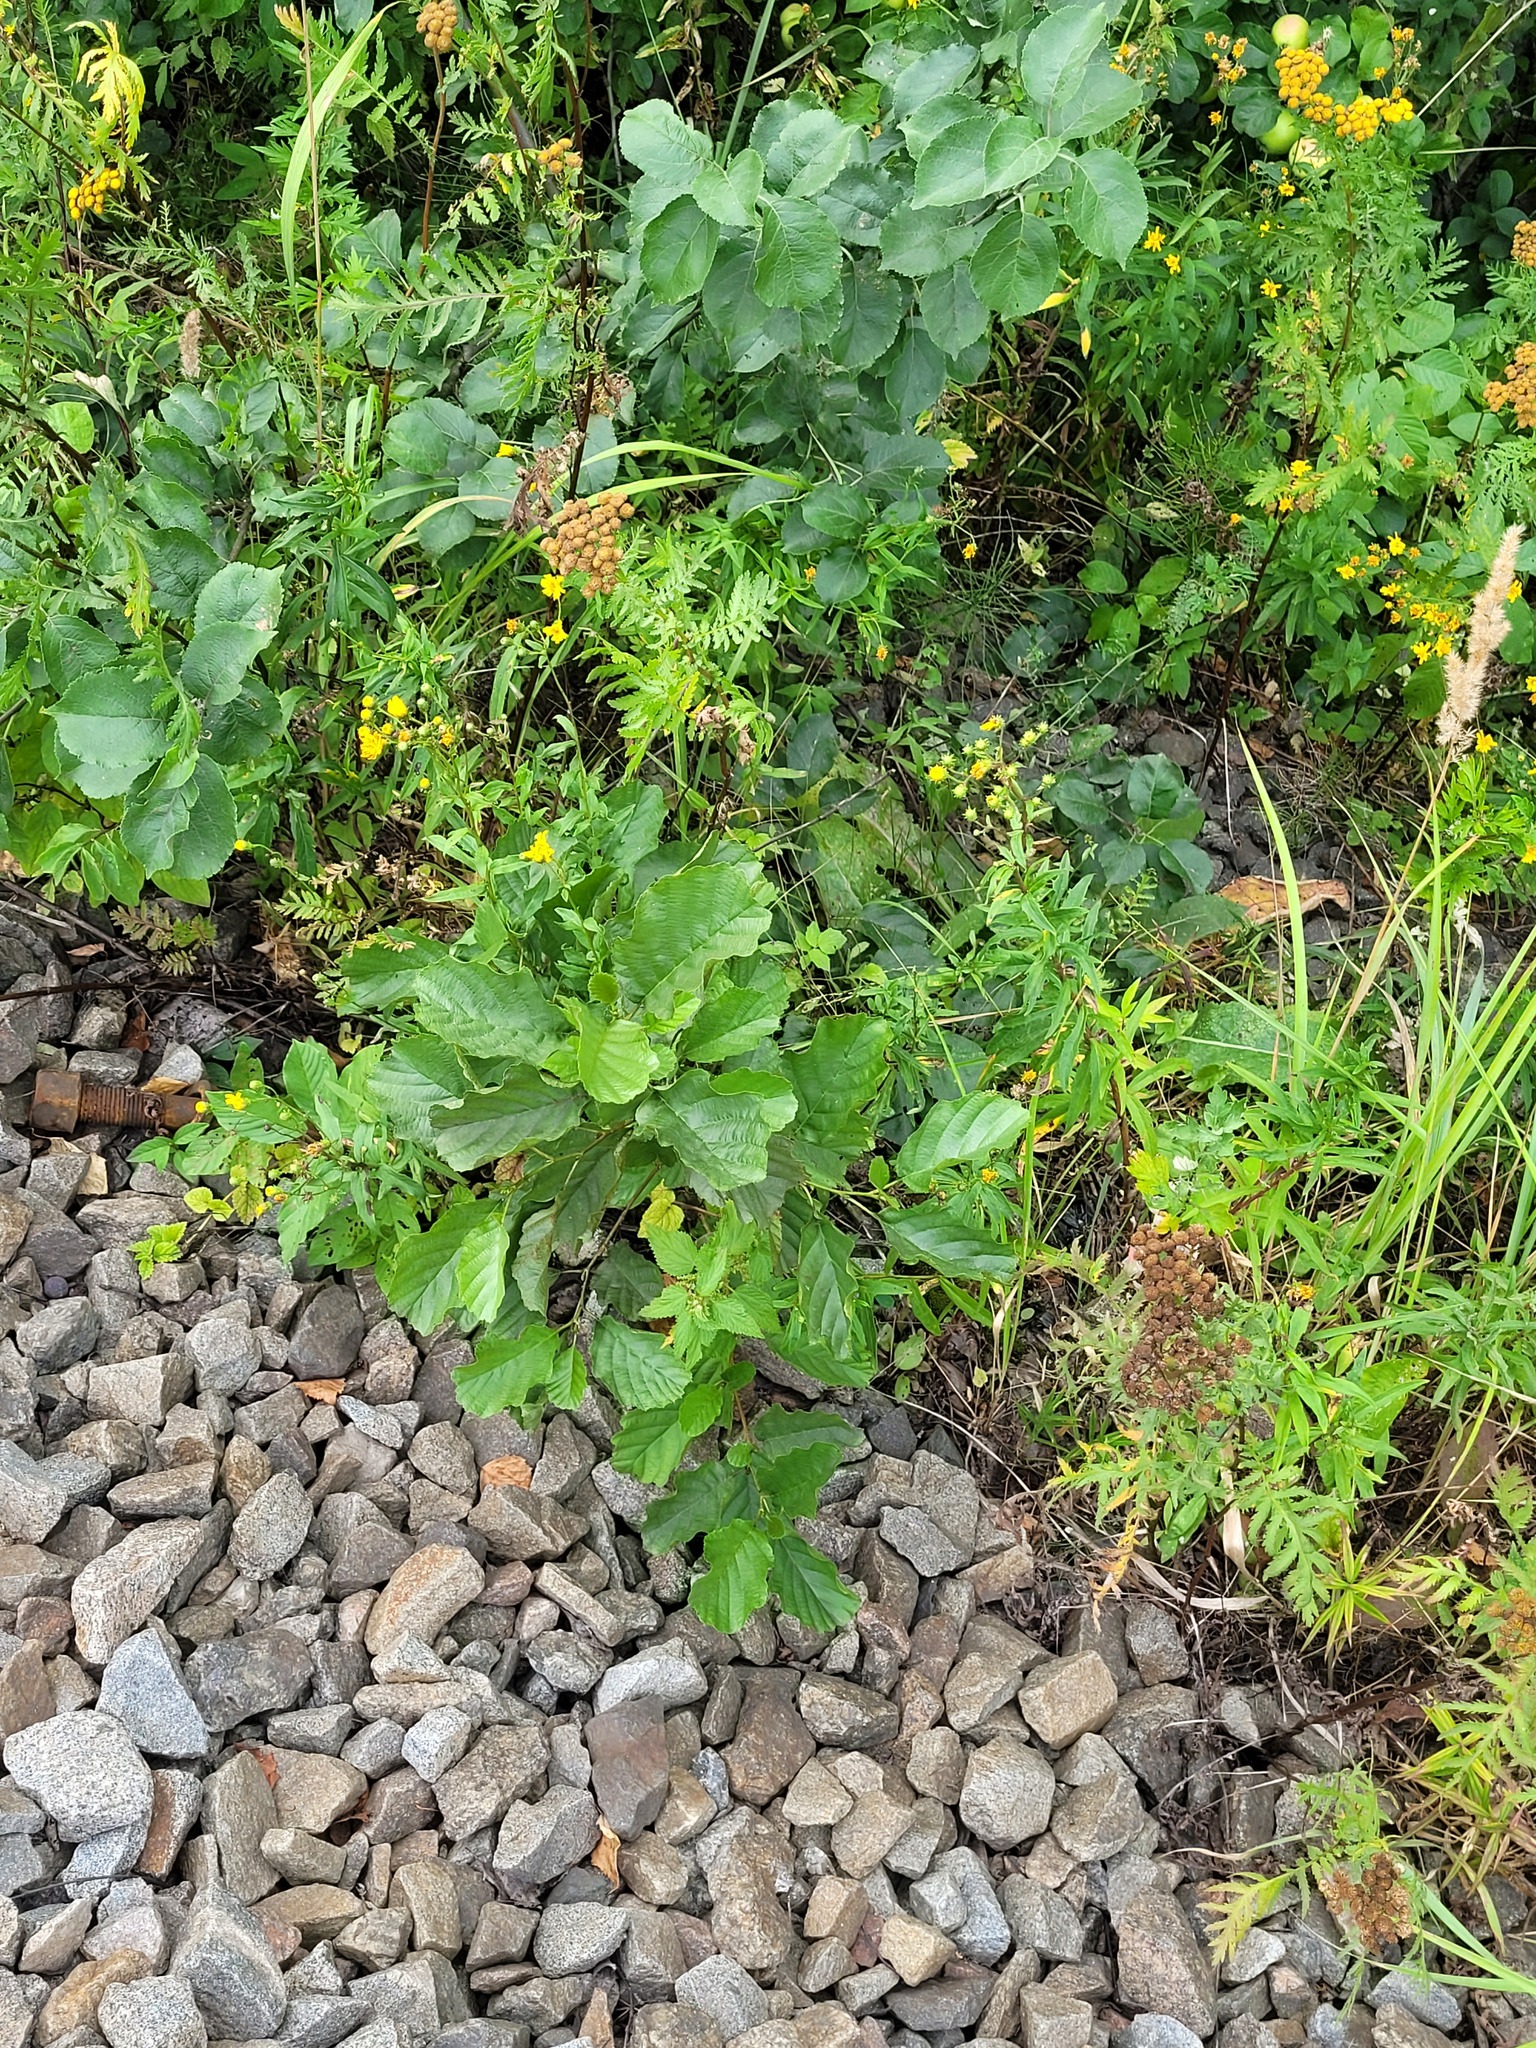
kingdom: Plantae
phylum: Tracheophyta
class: Magnoliopsida
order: Fagales
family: Betulaceae
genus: Alnus
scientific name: Alnus glutinosa
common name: Black alder
